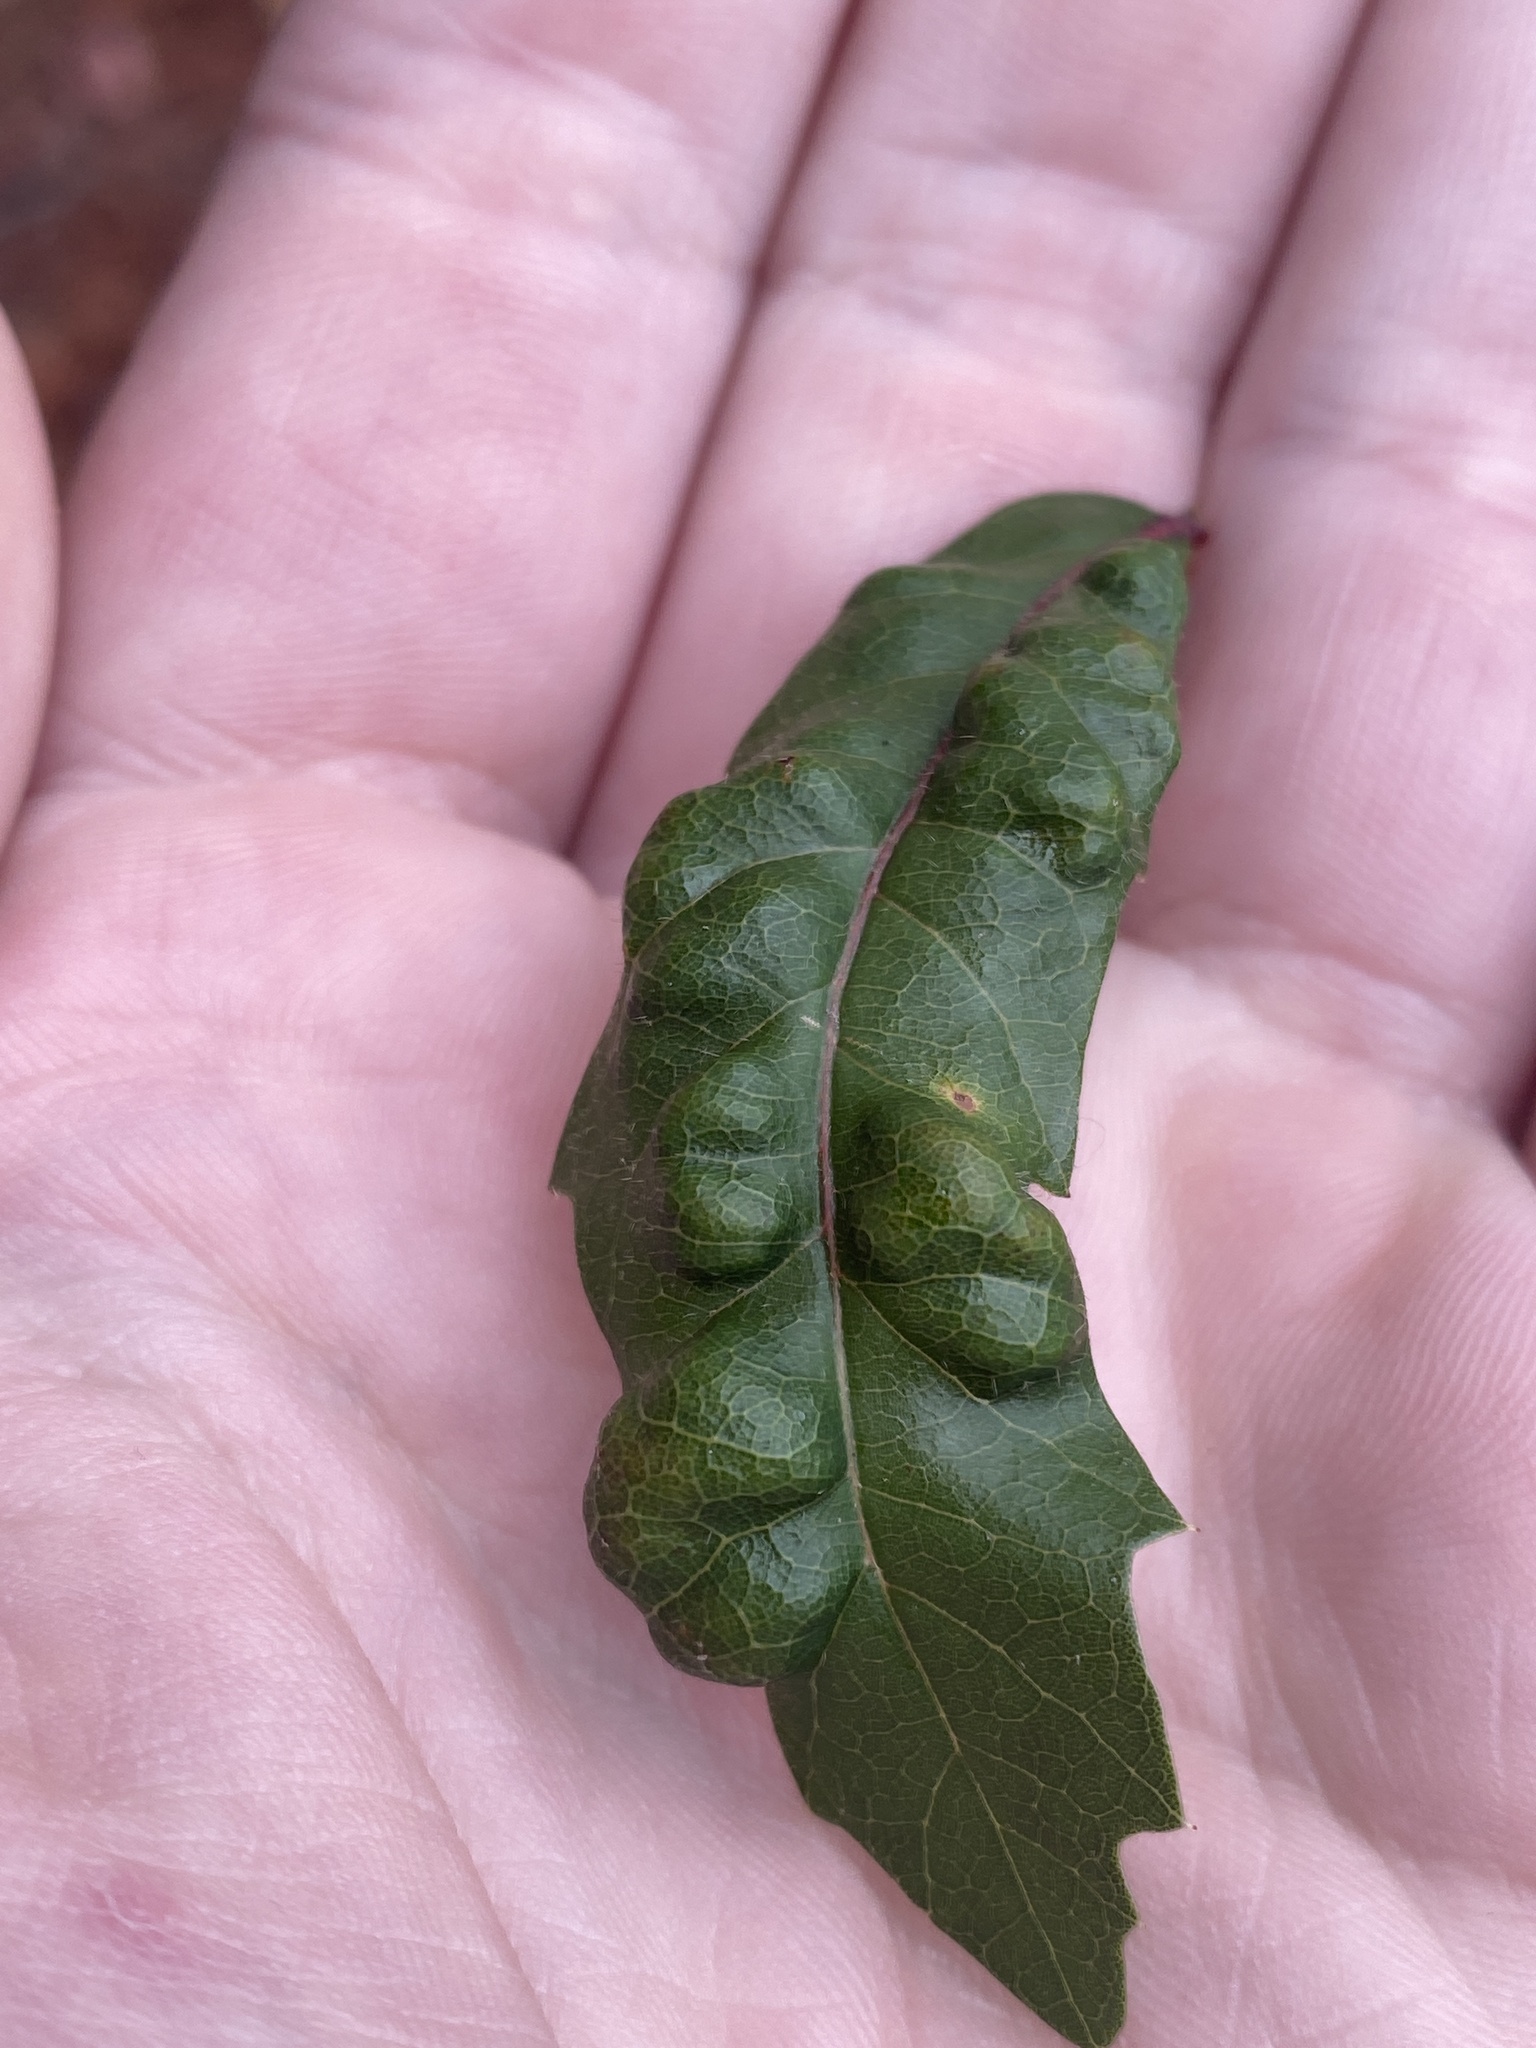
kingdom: Fungi
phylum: Ascomycota
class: Taphrinomycetes
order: Taphrinales
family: Taphrinaceae
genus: Taphrina
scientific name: Taphrina caerulescens
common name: Oak leaf blister
